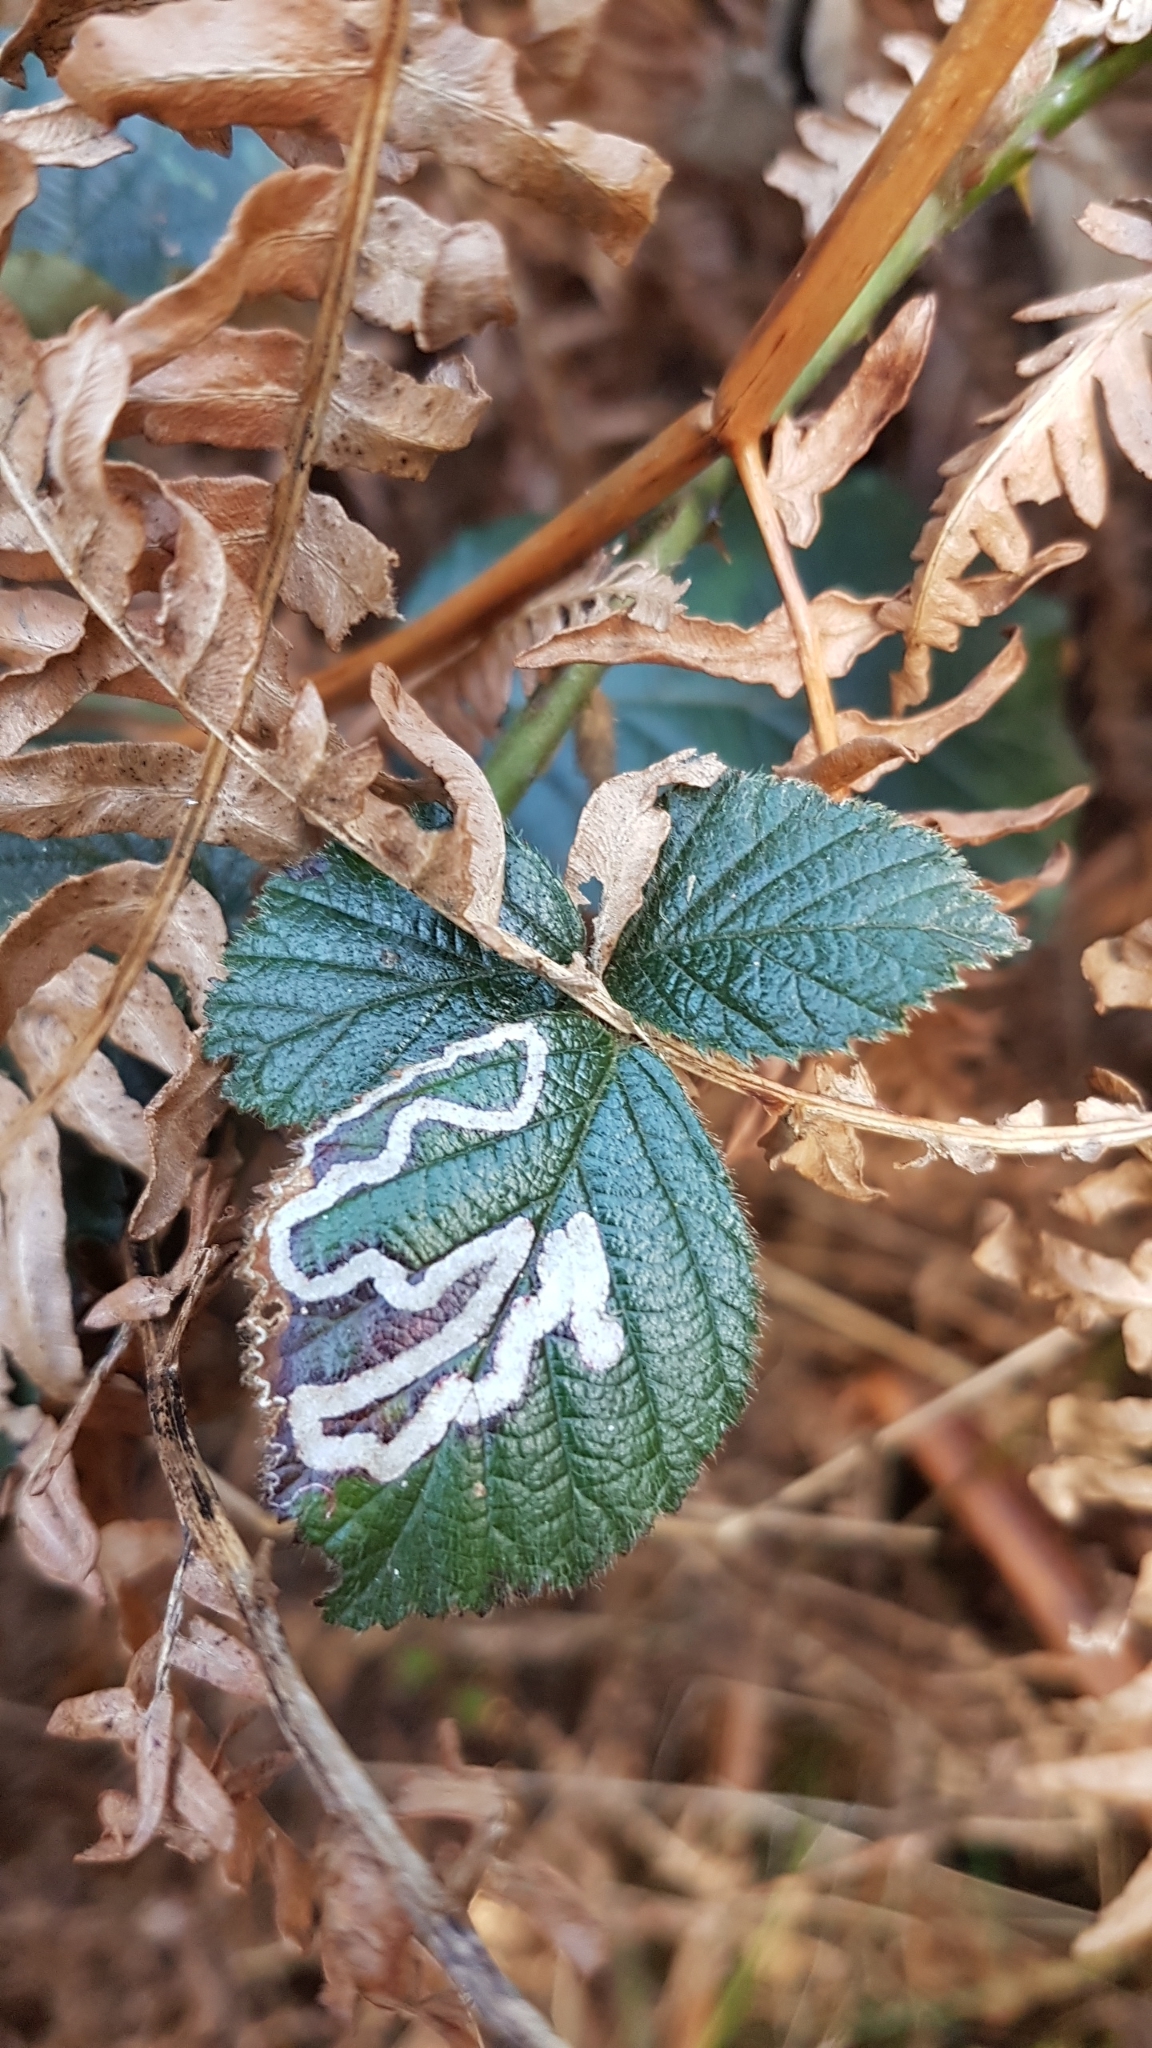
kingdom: Animalia
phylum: Arthropoda
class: Insecta
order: Lepidoptera
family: Nepticulidae
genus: Stigmella
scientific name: Stigmella aurella
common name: Golden pigmy
